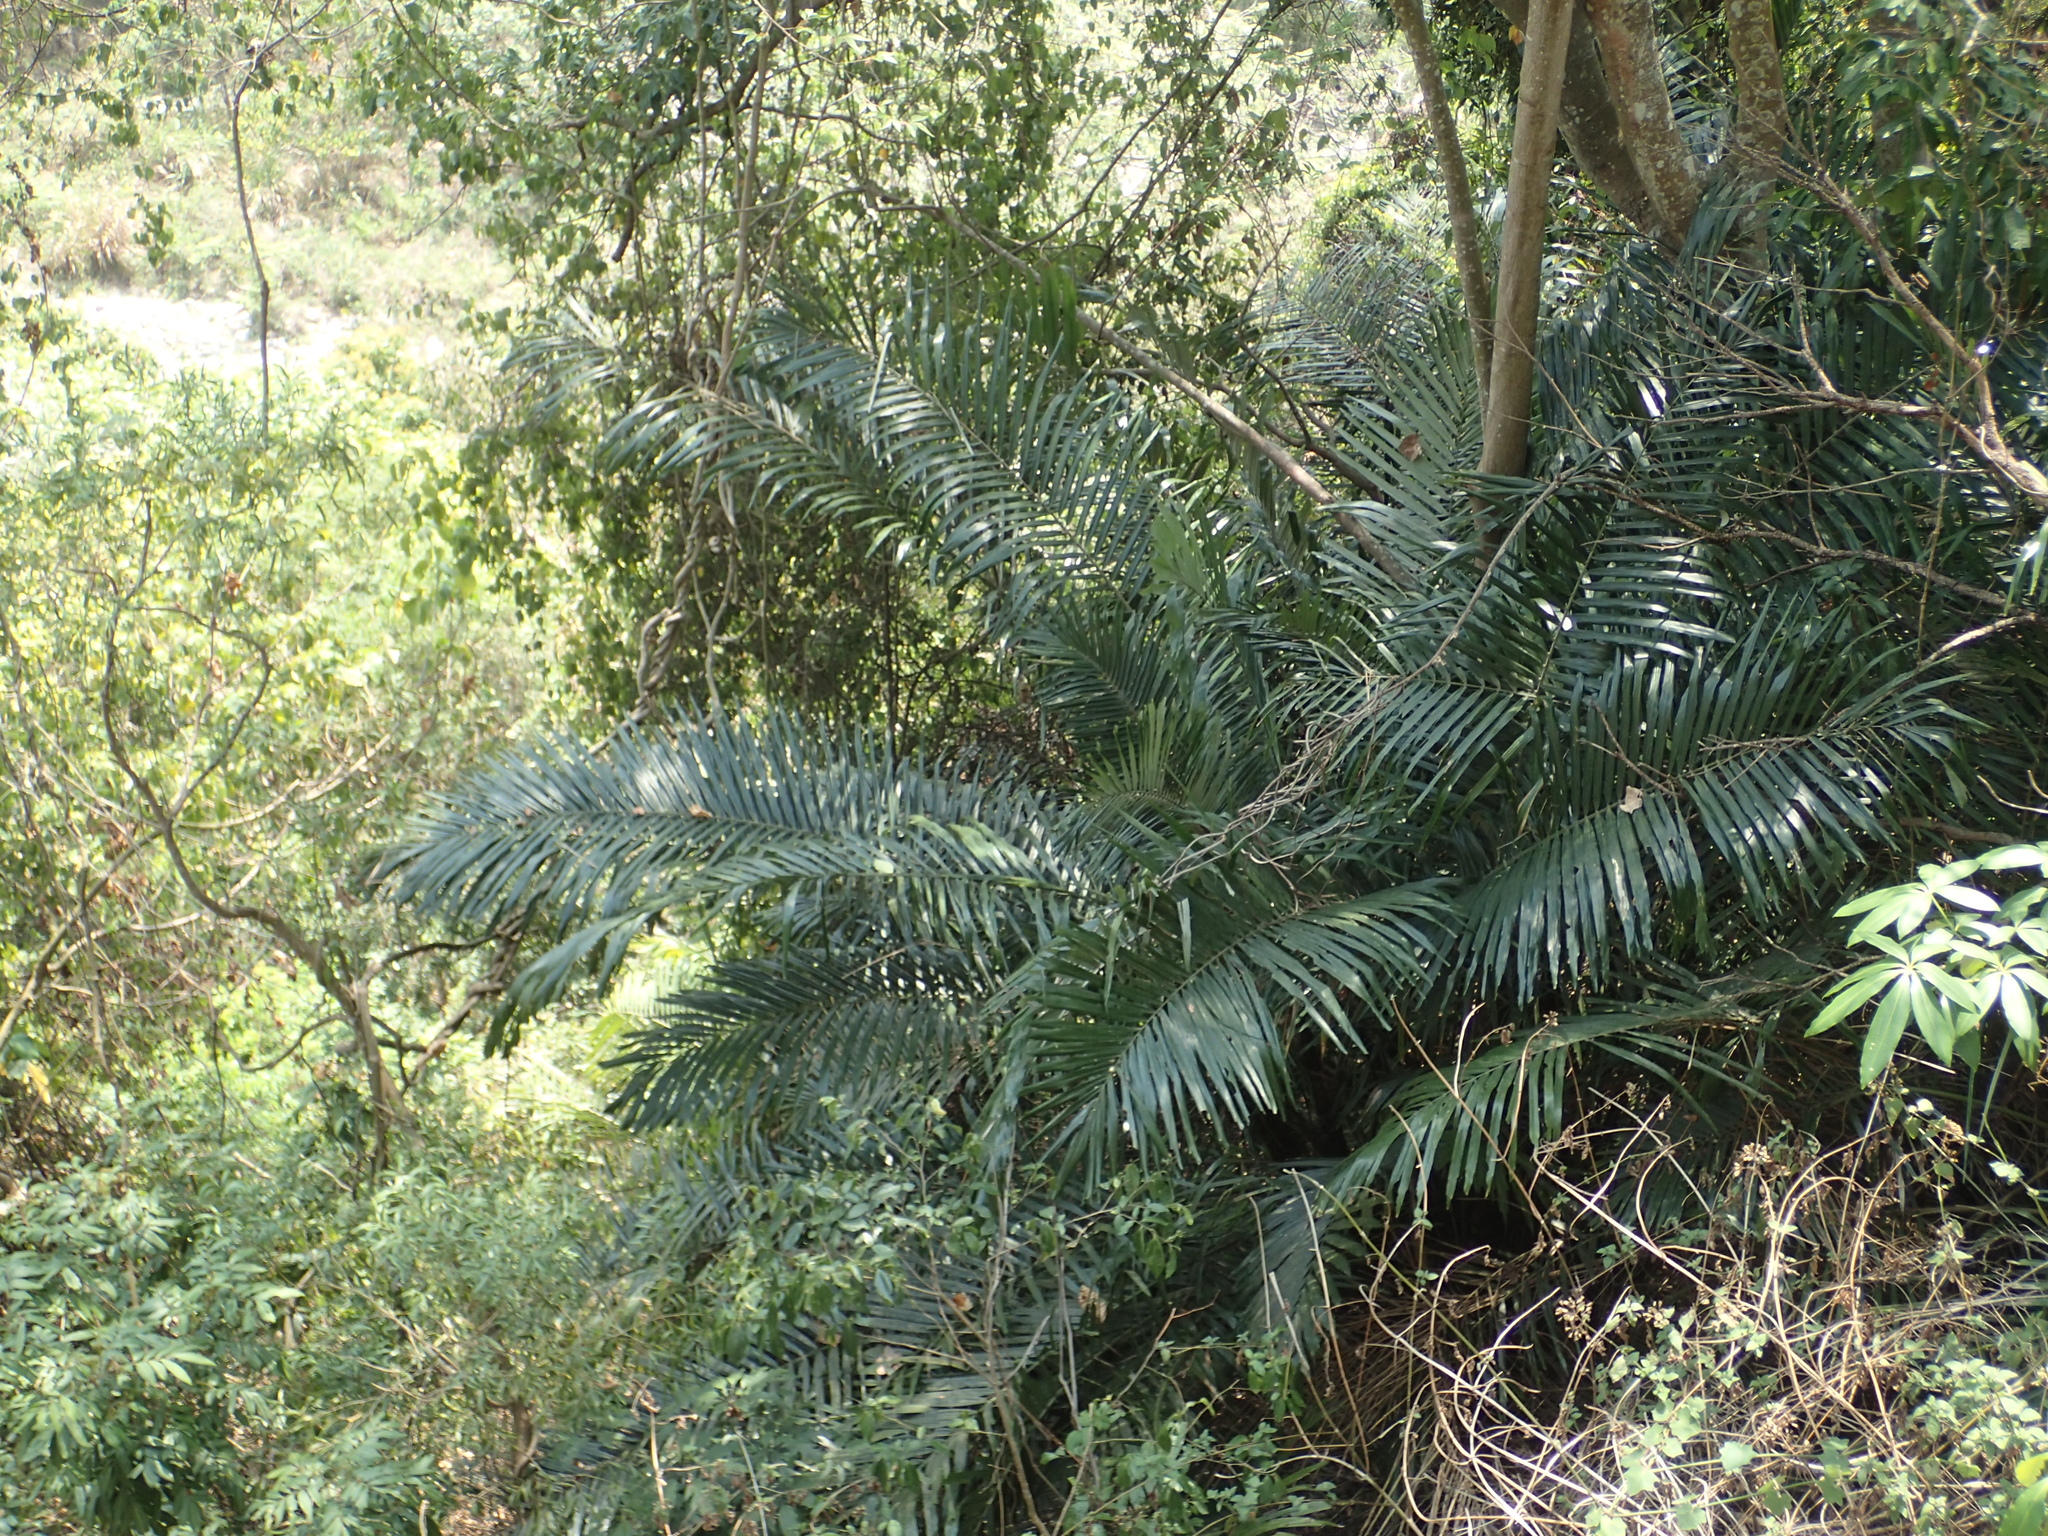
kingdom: Plantae
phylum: Tracheophyta
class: Liliopsida
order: Arecales
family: Arecaceae
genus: Arenga
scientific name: Arenga engleri
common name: Formosan sugar palm
